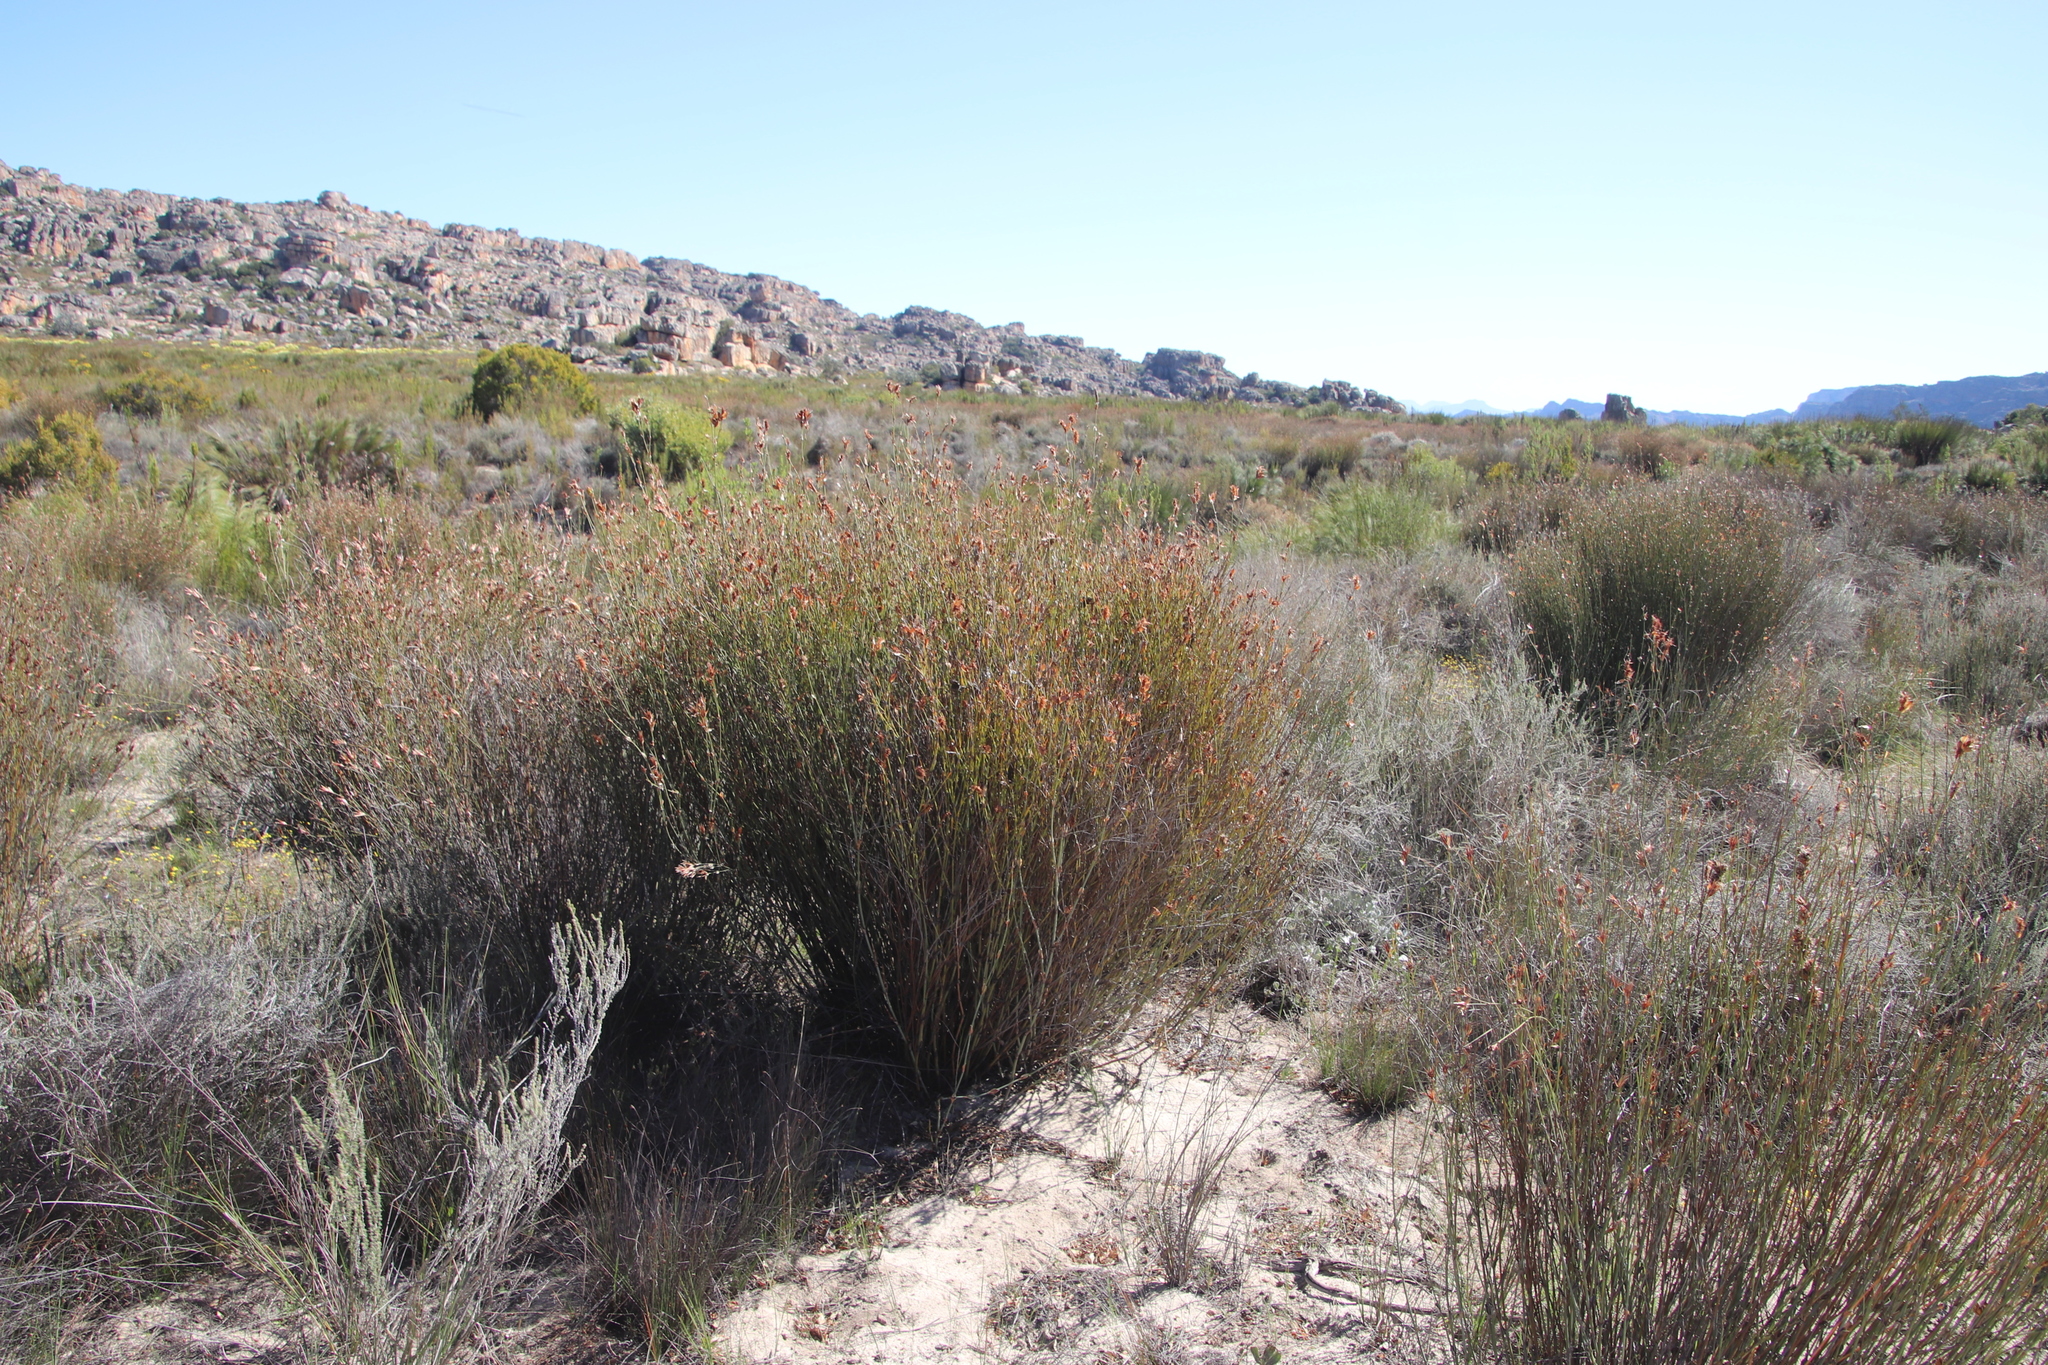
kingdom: Plantae
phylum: Tracheophyta
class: Liliopsida
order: Poales
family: Restionaceae
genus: Willdenowia
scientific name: Willdenowia incurvata
